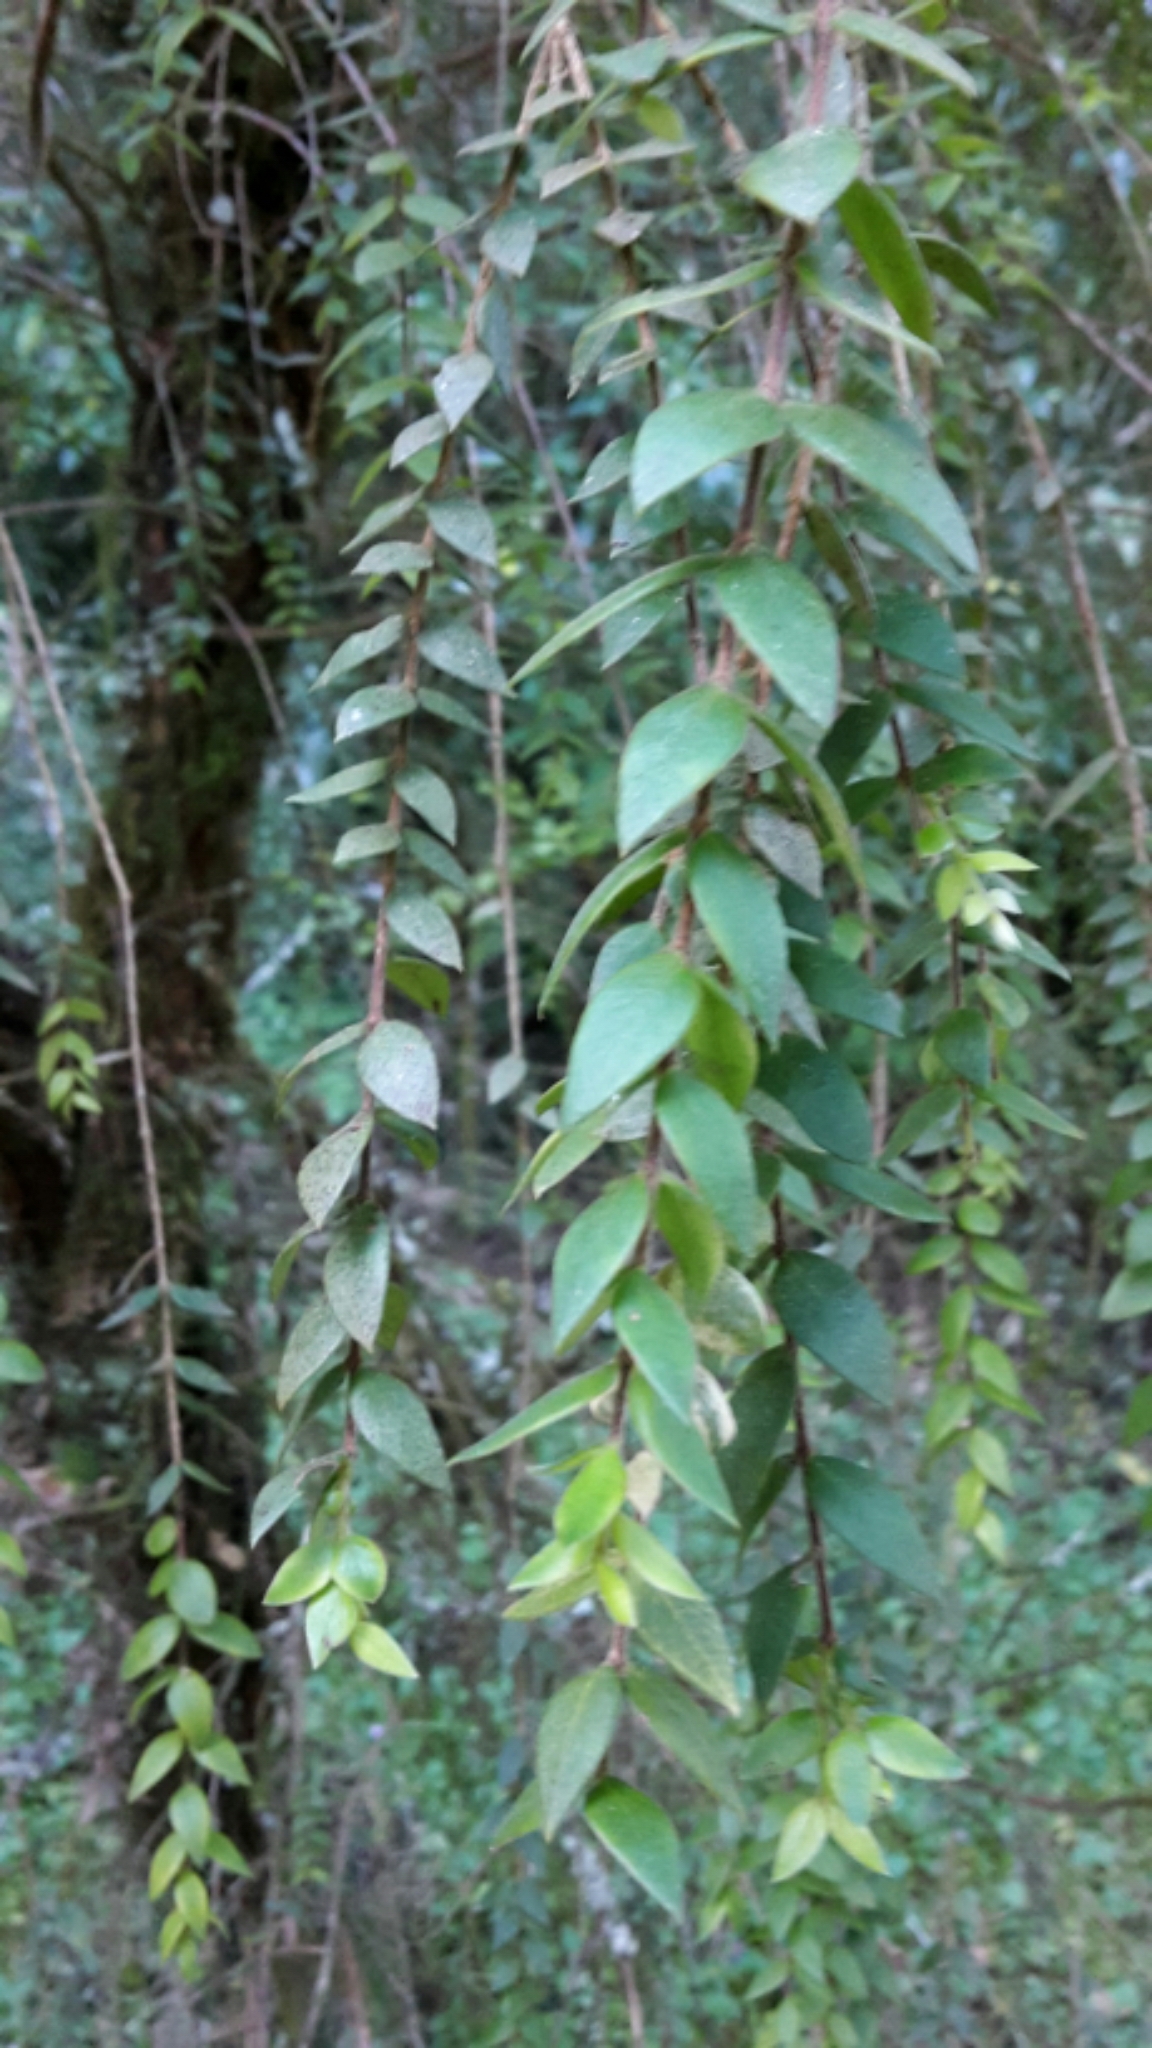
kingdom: Plantae
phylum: Tracheophyta
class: Magnoliopsida
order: Myrtales
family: Myrtaceae
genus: Metrosideros
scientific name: Metrosideros colensoi
